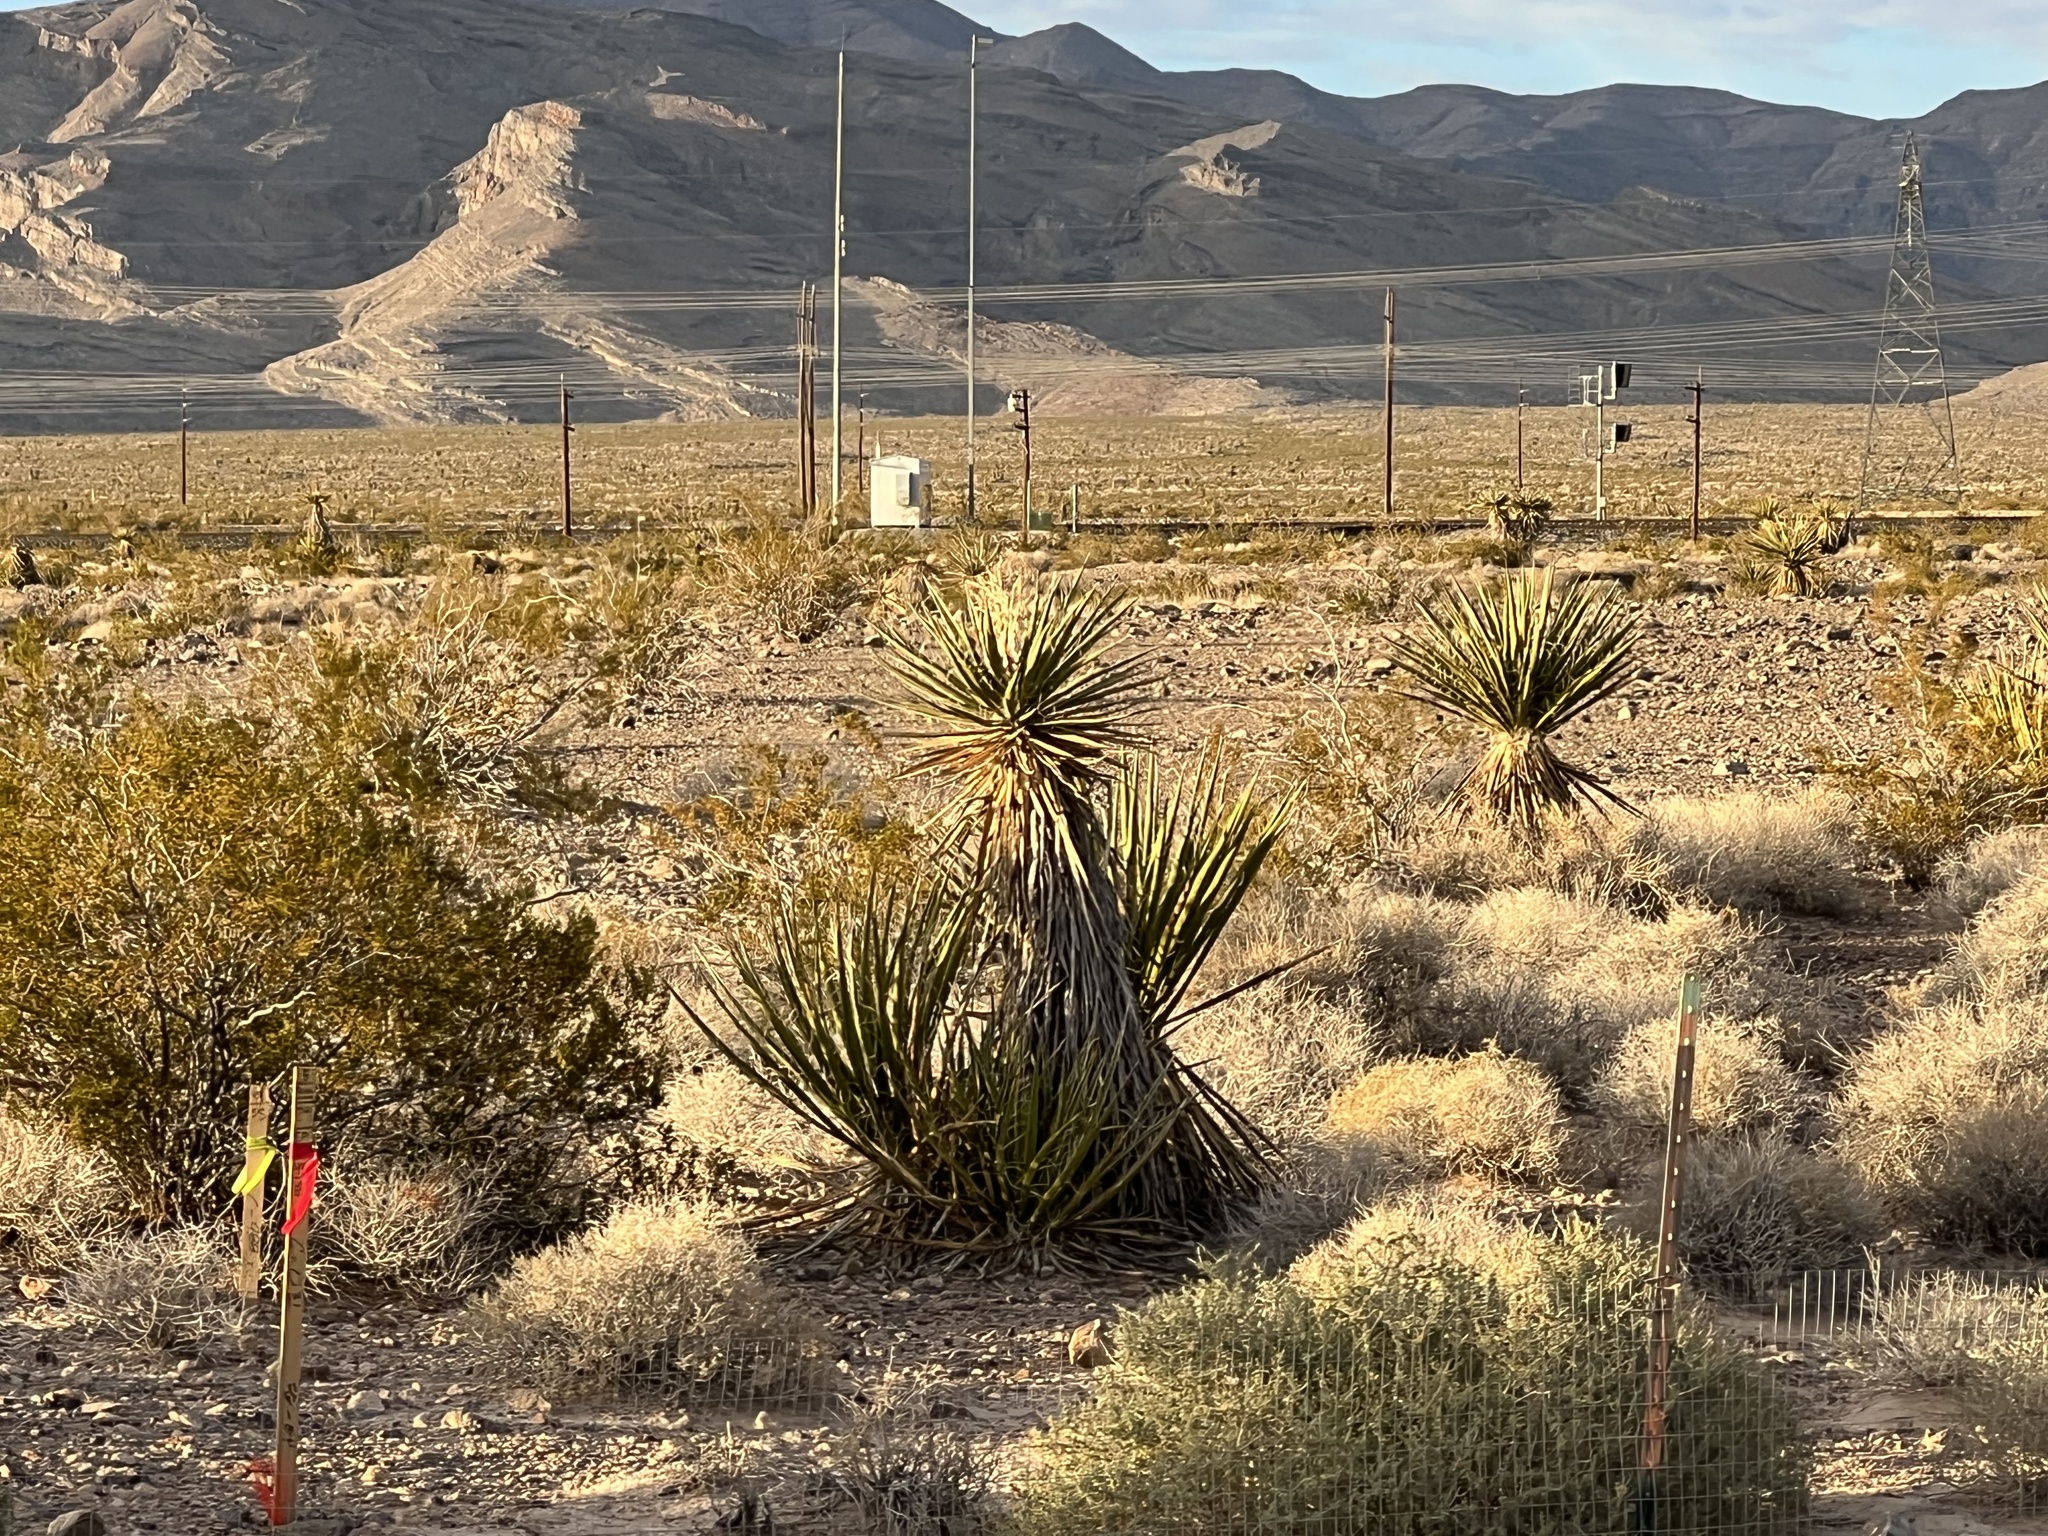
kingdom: Plantae
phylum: Tracheophyta
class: Liliopsida
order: Asparagales
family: Asparagaceae
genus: Yucca
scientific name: Yucca schidigera
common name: Mojave yucca
